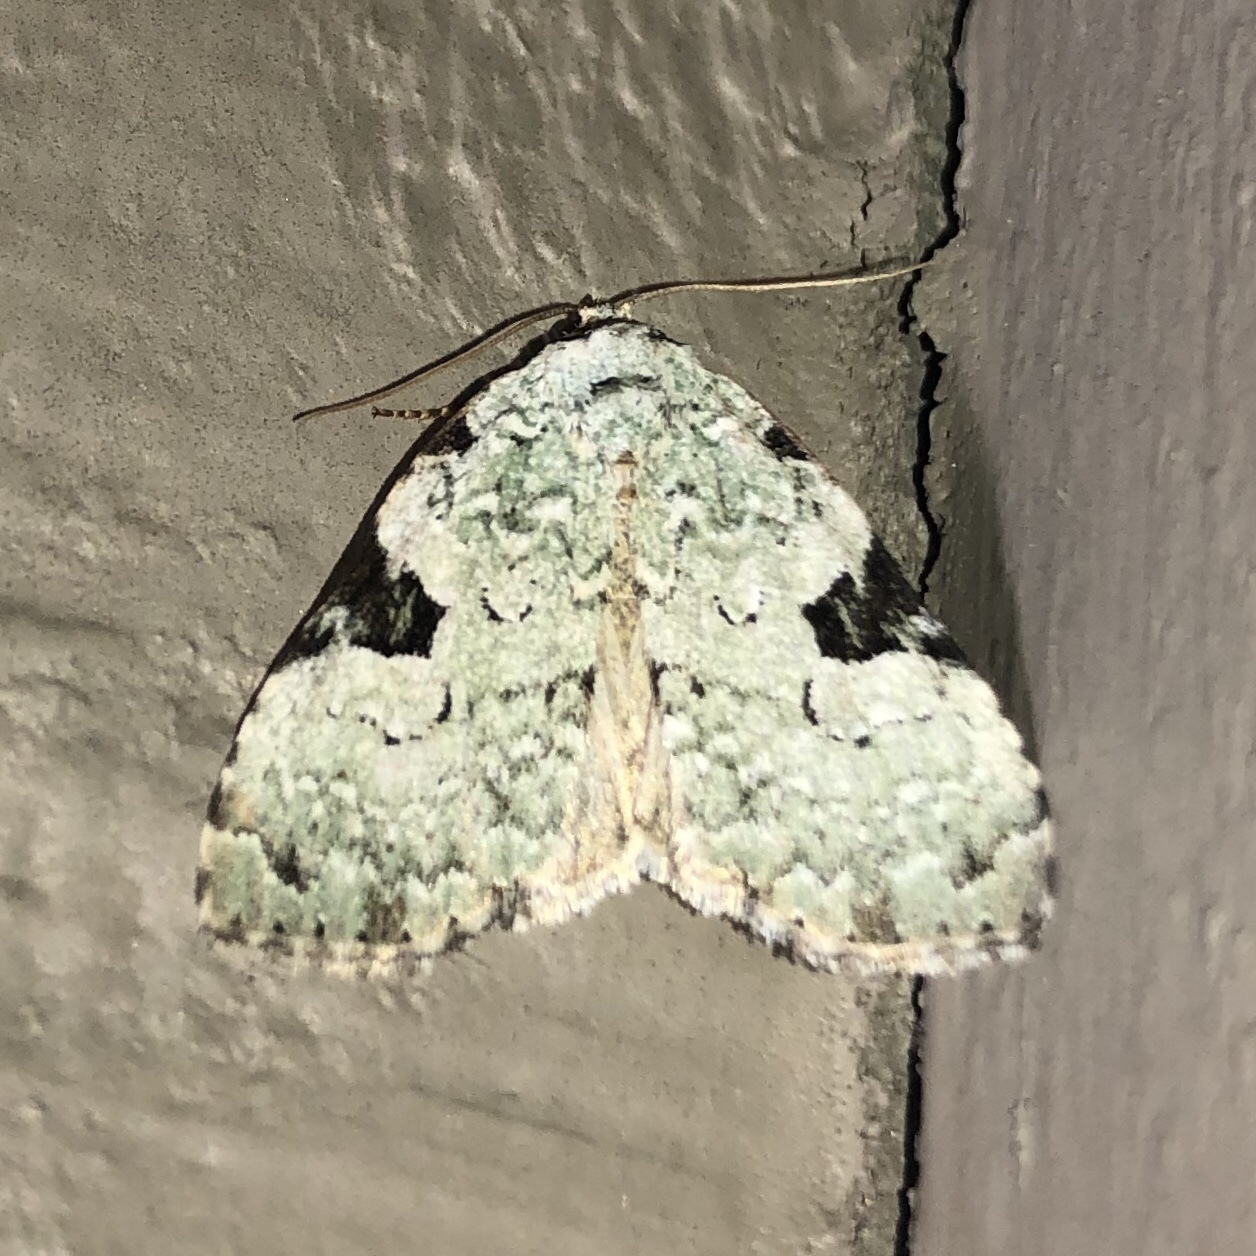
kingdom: Animalia
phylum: Arthropoda
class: Insecta
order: Lepidoptera
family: Noctuidae
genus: Leuconycta
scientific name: Leuconycta diphteroides
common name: Green leuconycta moth
